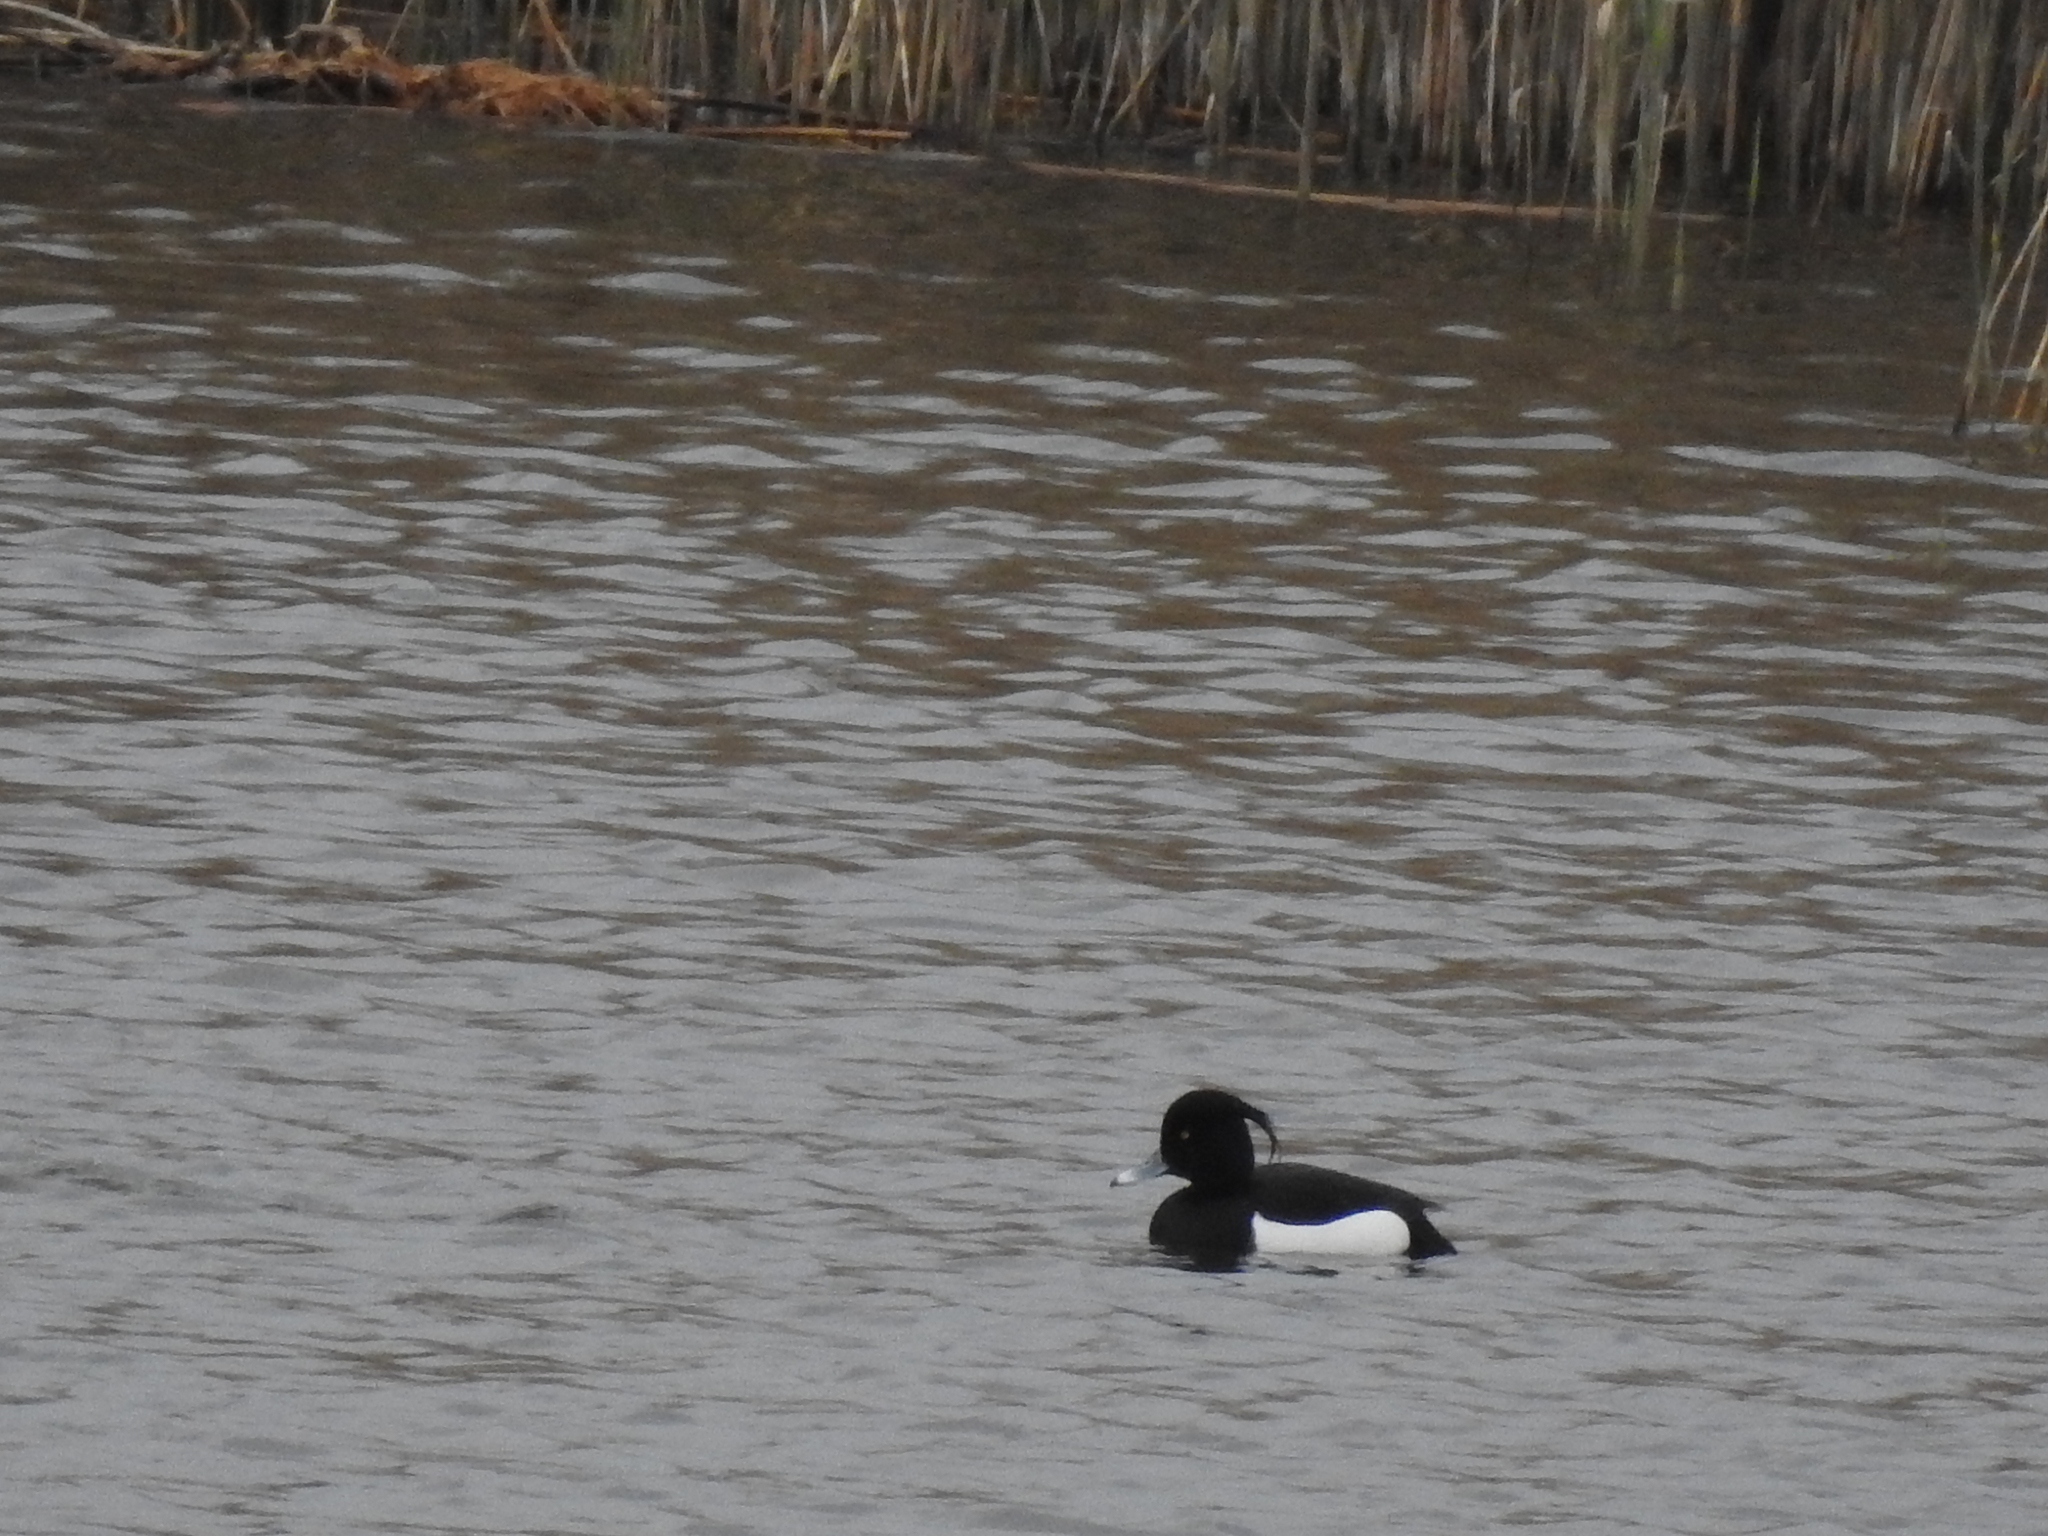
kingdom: Animalia
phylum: Chordata
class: Aves
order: Anseriformes
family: Anatidae
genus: Aythya
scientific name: Aythya fuligula
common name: Tufted duck
